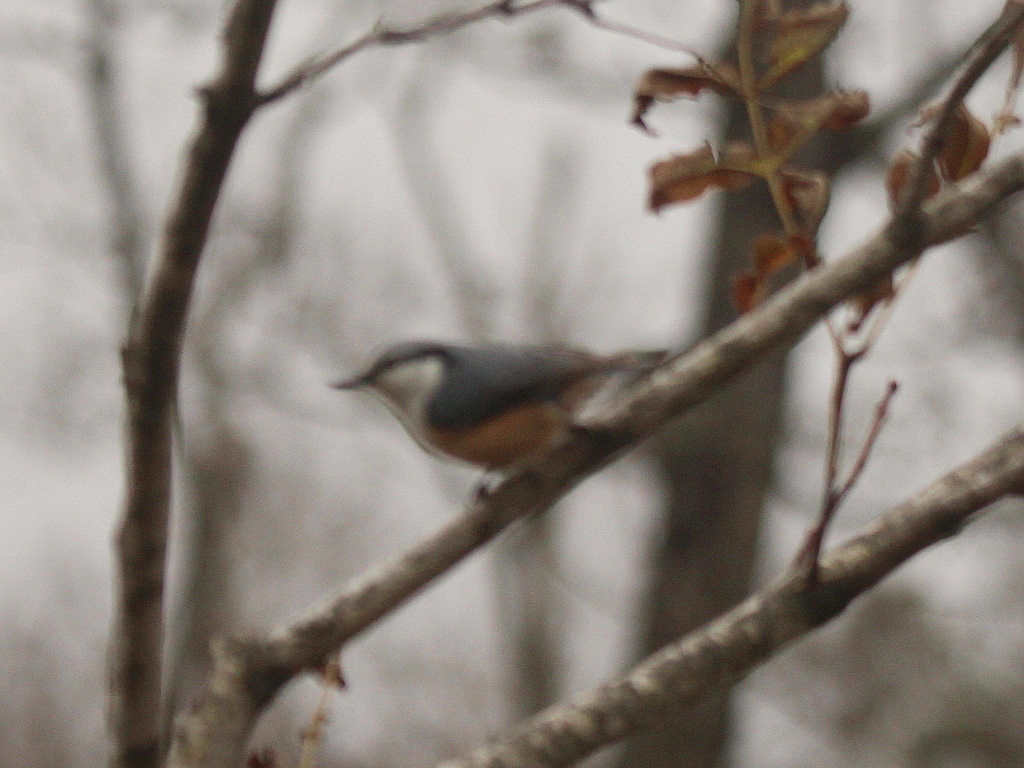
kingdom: Animalia
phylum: Chordata
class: Aves
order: Passeriformes
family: Sittidae
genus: Sitta
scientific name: Sitta europaea
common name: Eurasian nuthatch
